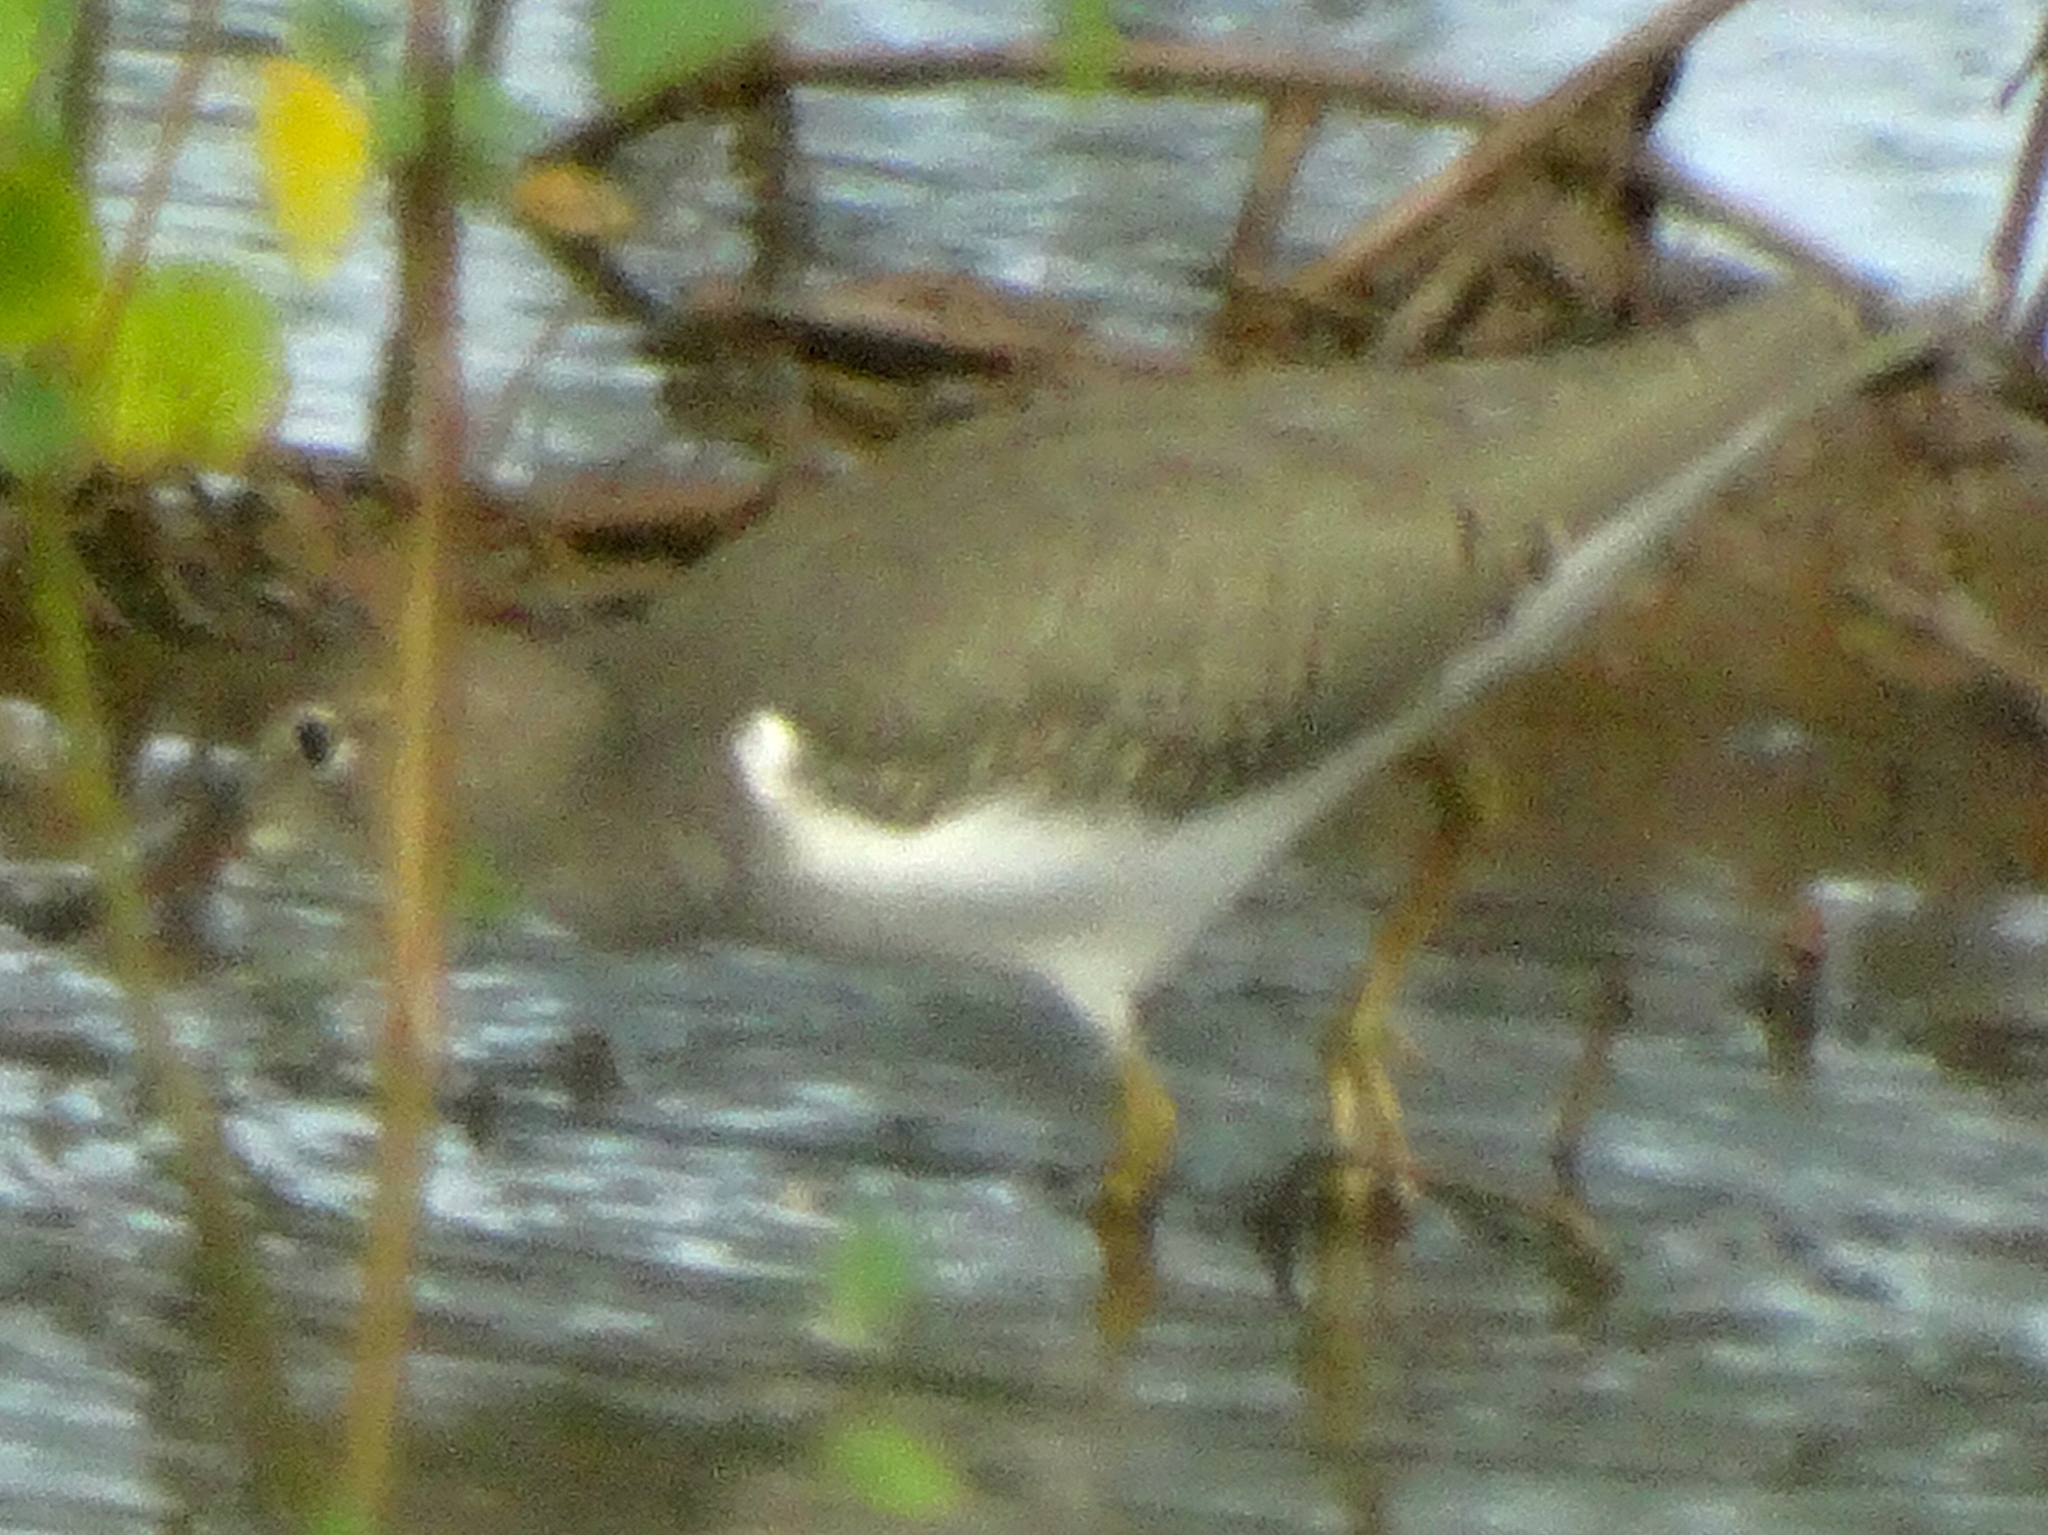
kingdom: Animalia
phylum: Chordata
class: Aves
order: Charadriiformes
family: Scolopacidae
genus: Actitis
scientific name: Actitis macularius
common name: Spotted sandpiper
